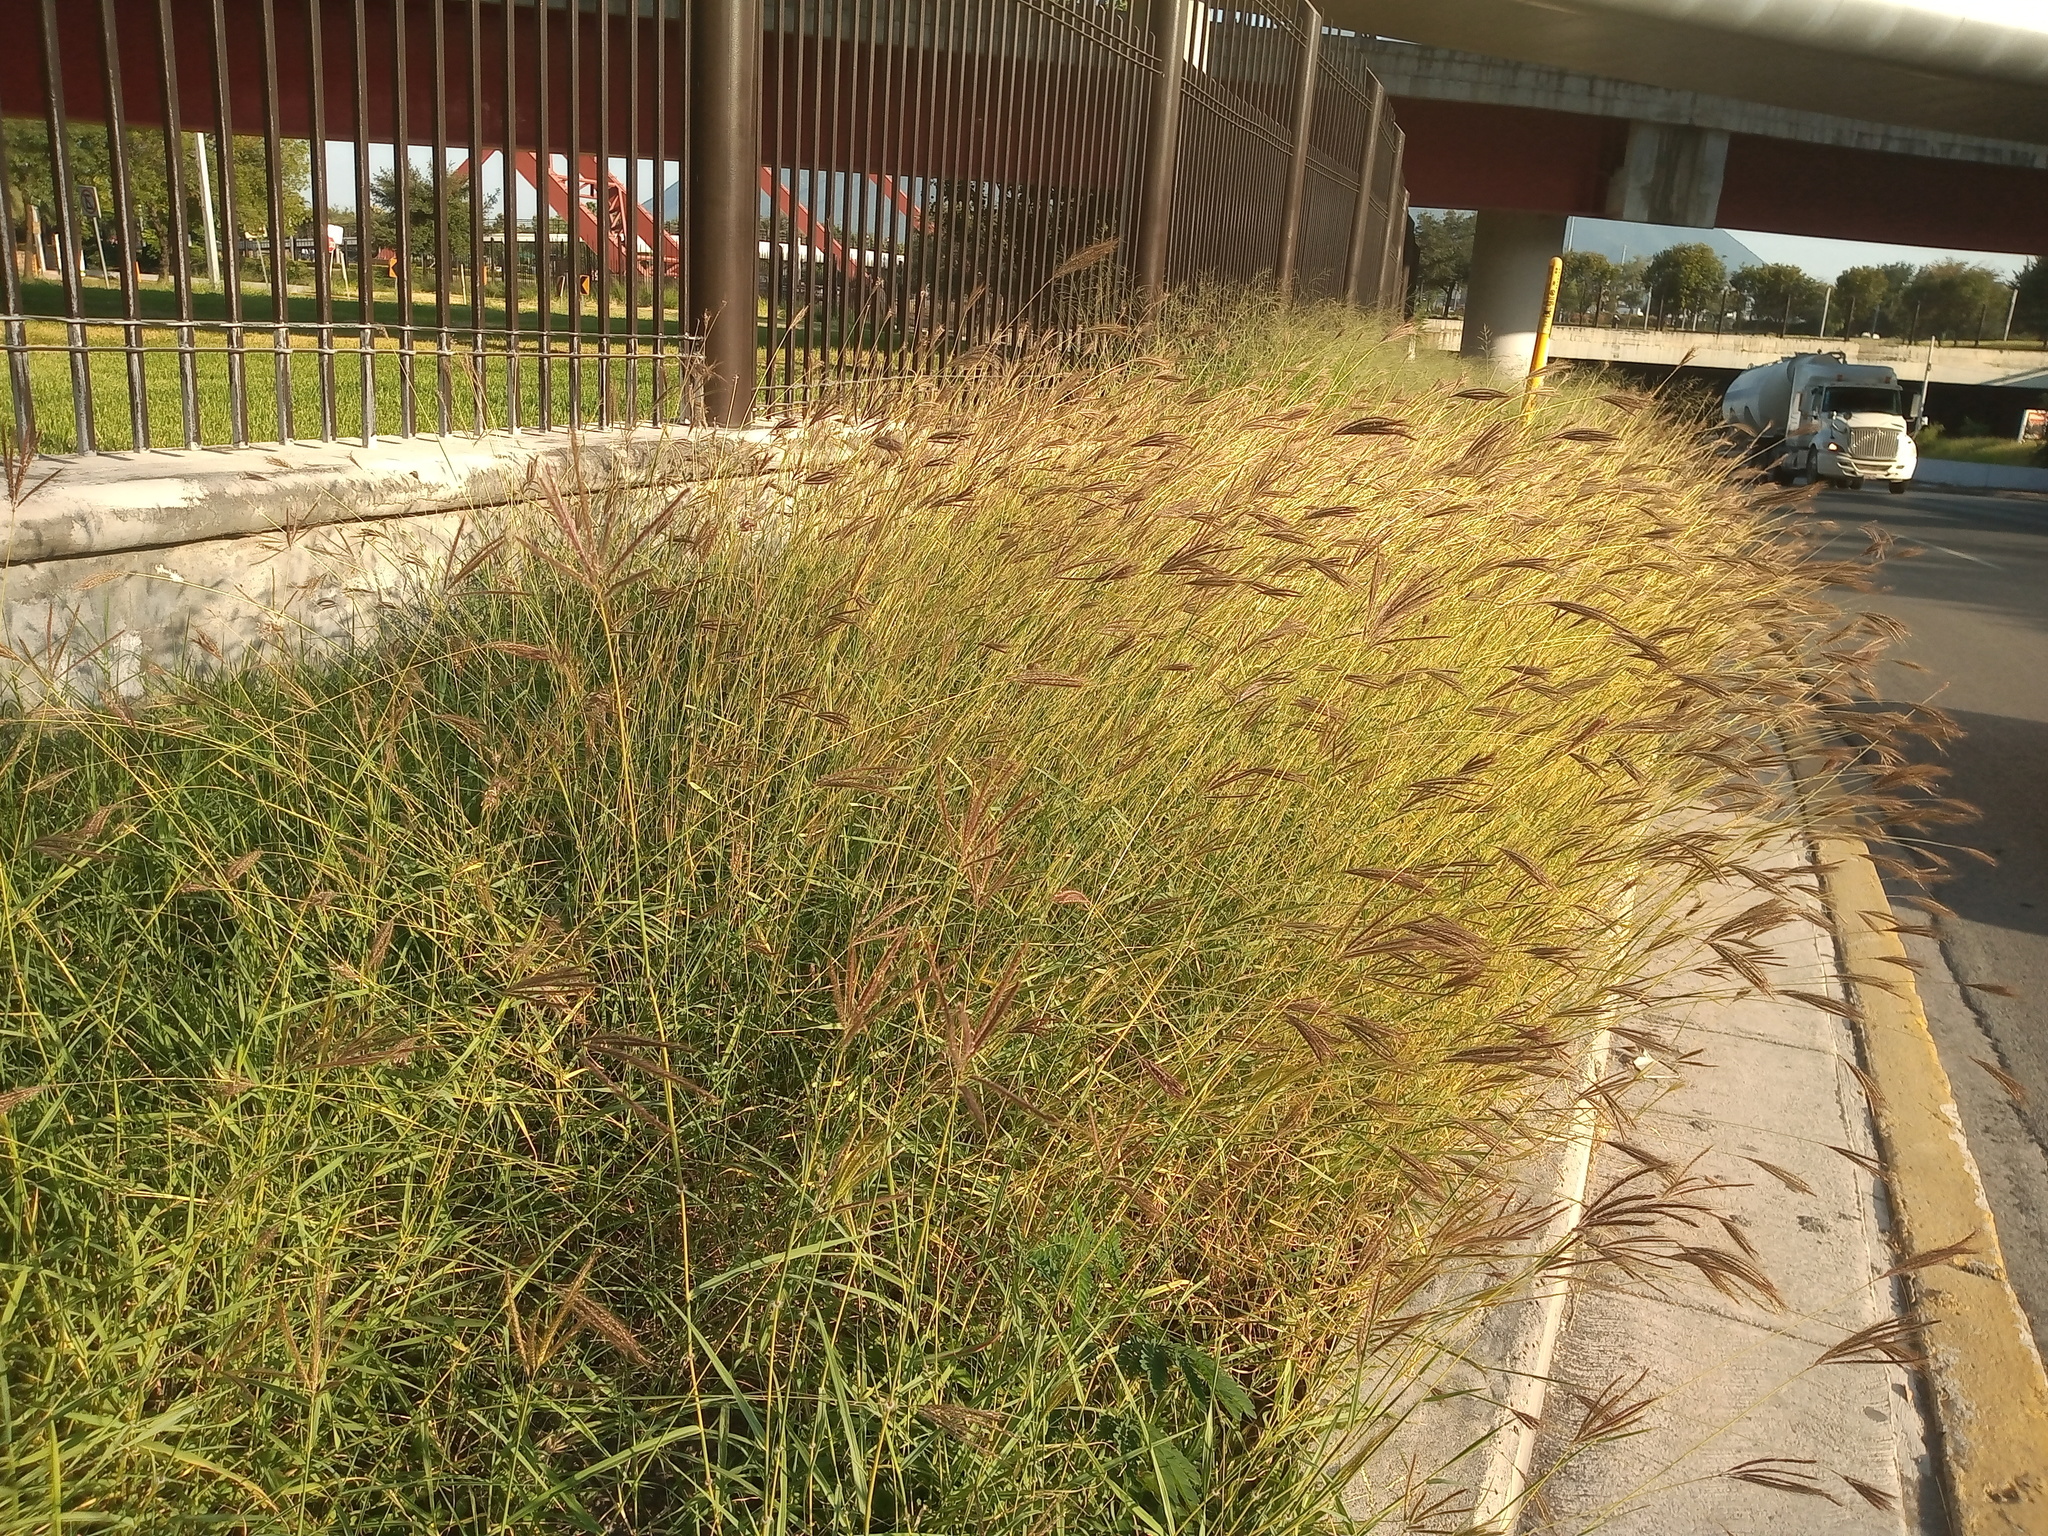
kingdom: Plantae
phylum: Tracheophyta
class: Liliopsida
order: Poales
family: Poaceae
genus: Dichanthium
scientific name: Dichanthium annulatum
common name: Kleberg's bluestem
